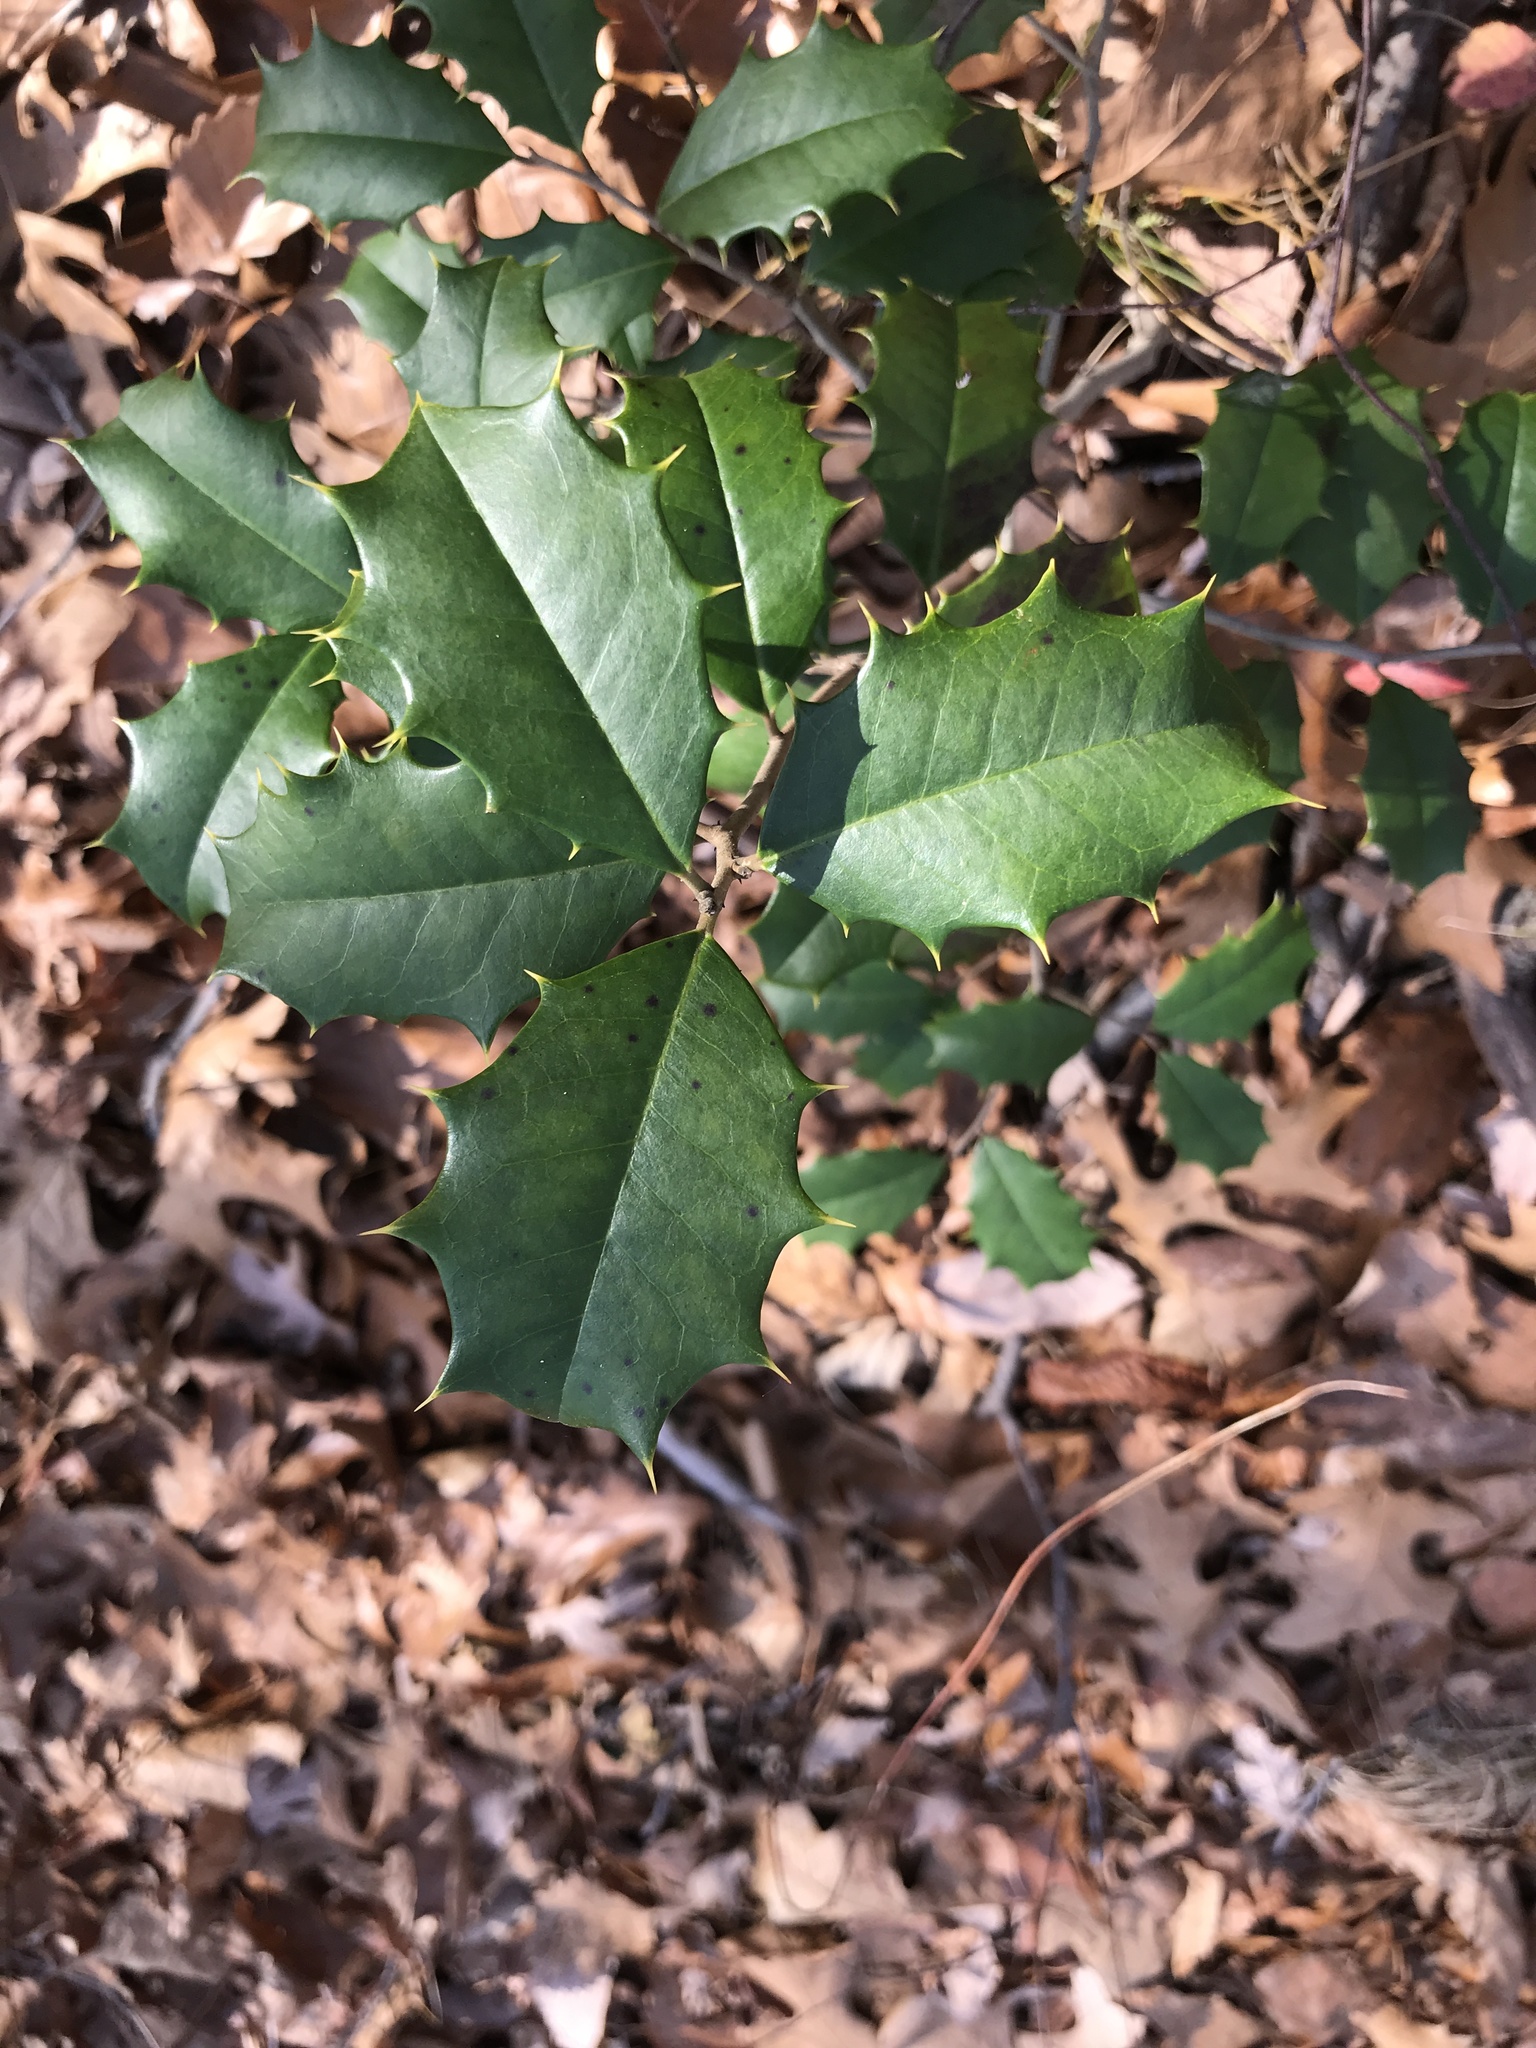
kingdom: Plantae
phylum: Tracheophyta
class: Magnoliopsida
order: Aquifoliales
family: Aquifoliaceae
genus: Ilex
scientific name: Ilex opaca
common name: American holly
